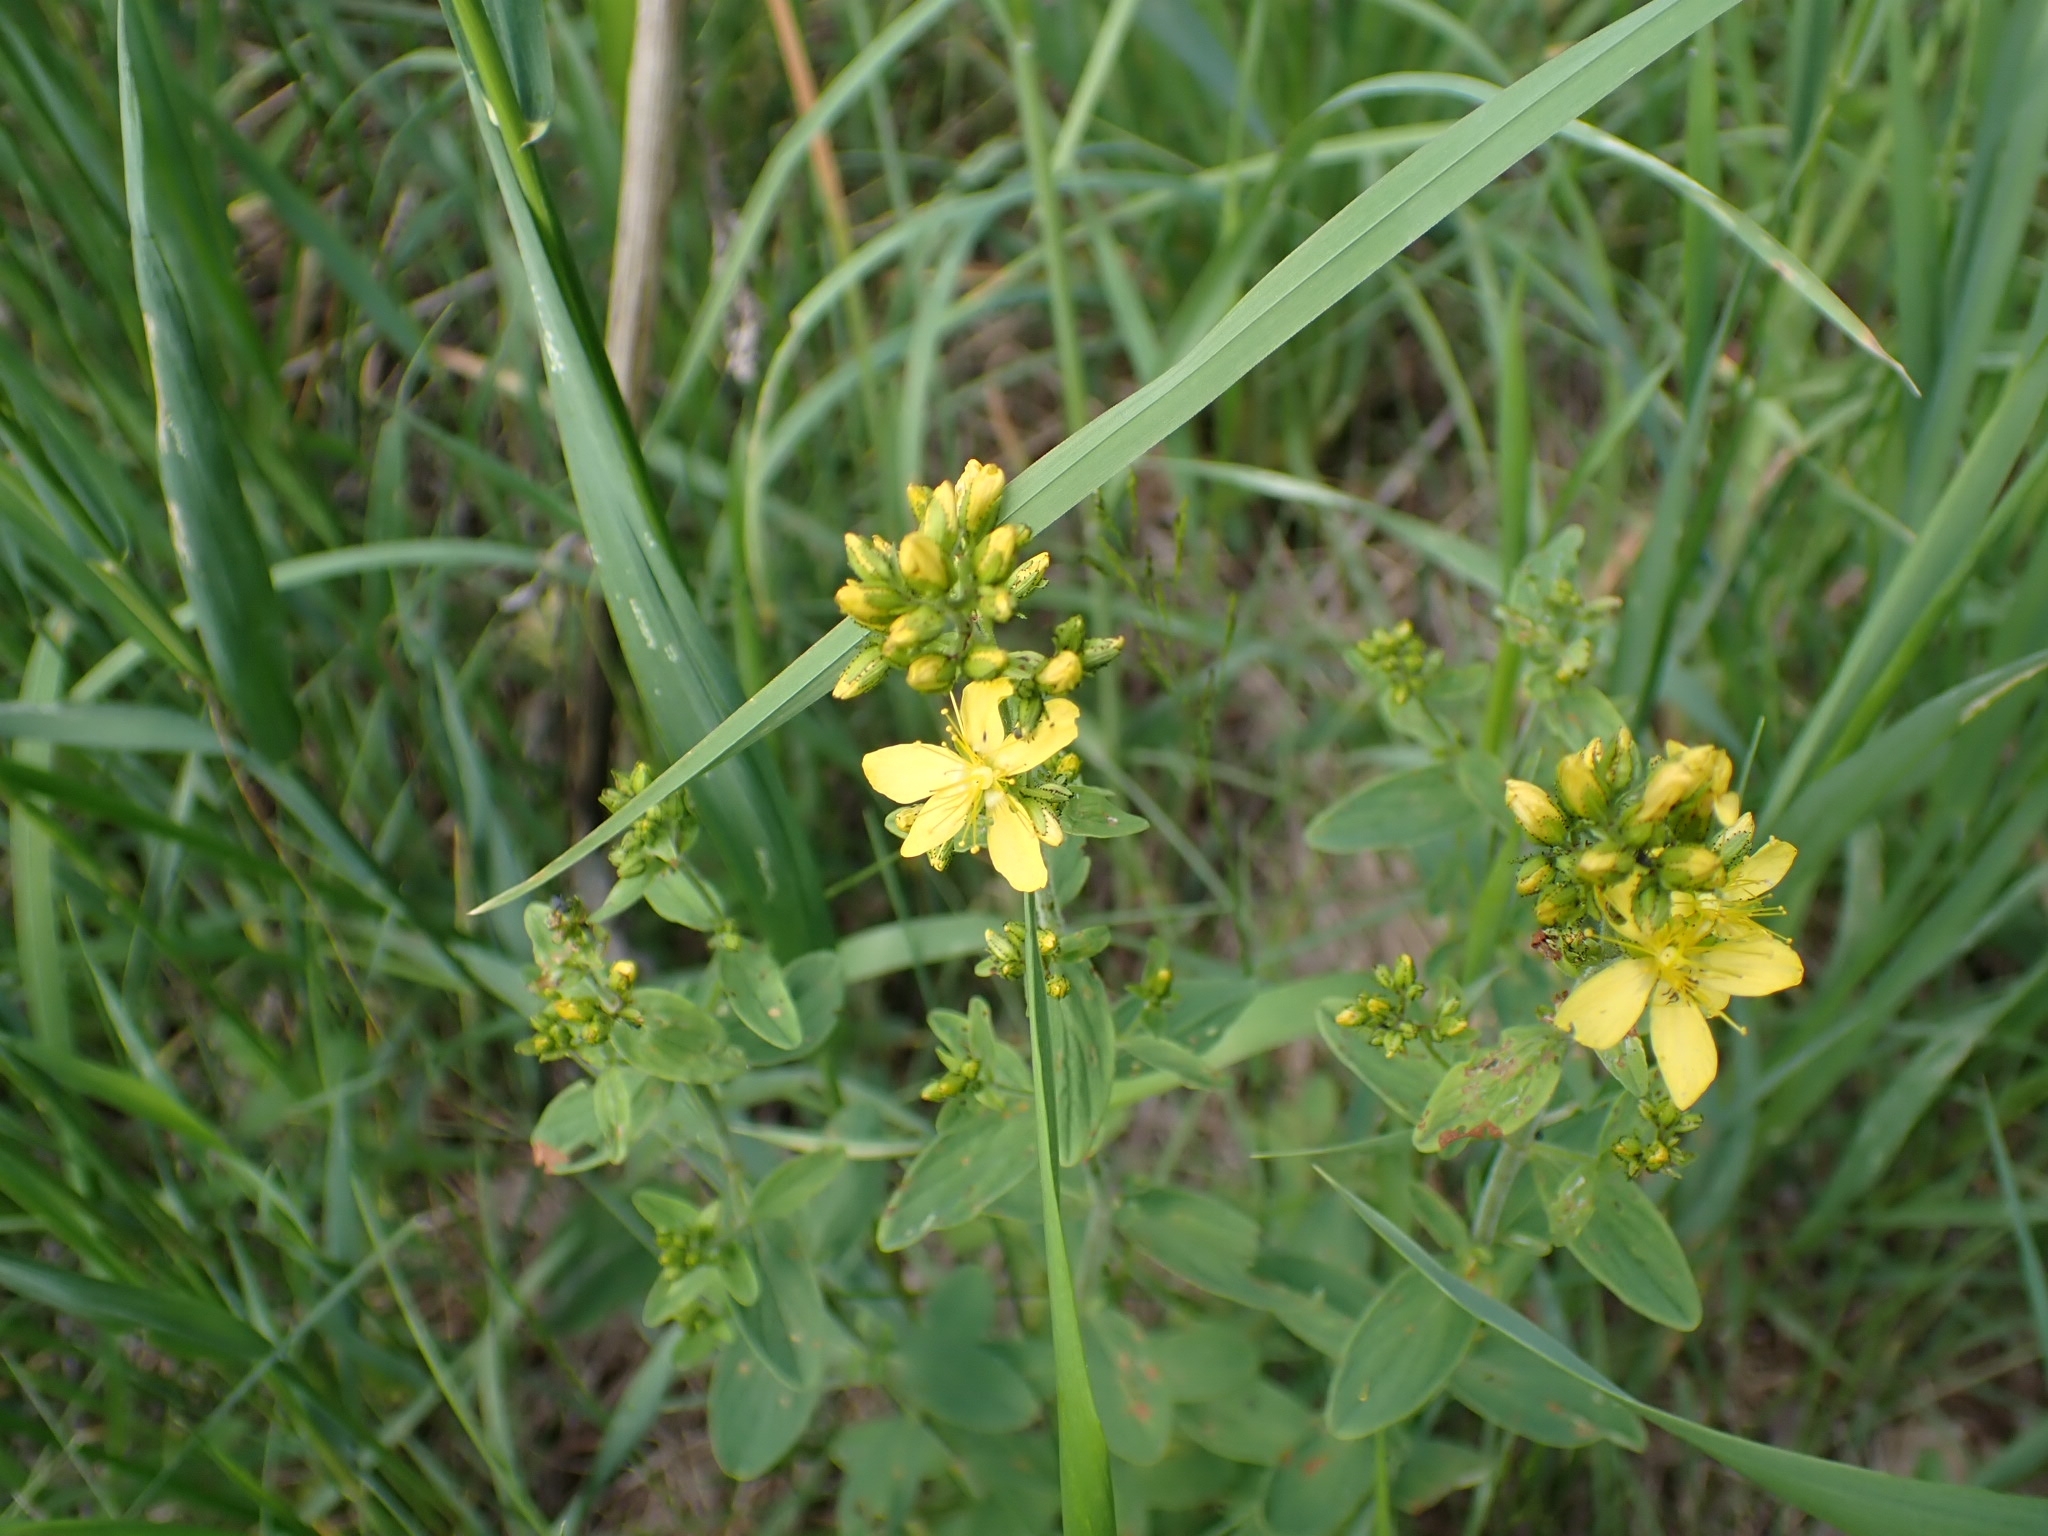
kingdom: Plantae
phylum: Tracheophyta
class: Magnoliopsida
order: Malpighiales
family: Hypericaceae
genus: Hypericum
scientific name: Hypericum hirsutum
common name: Hairy st. john's-wort
